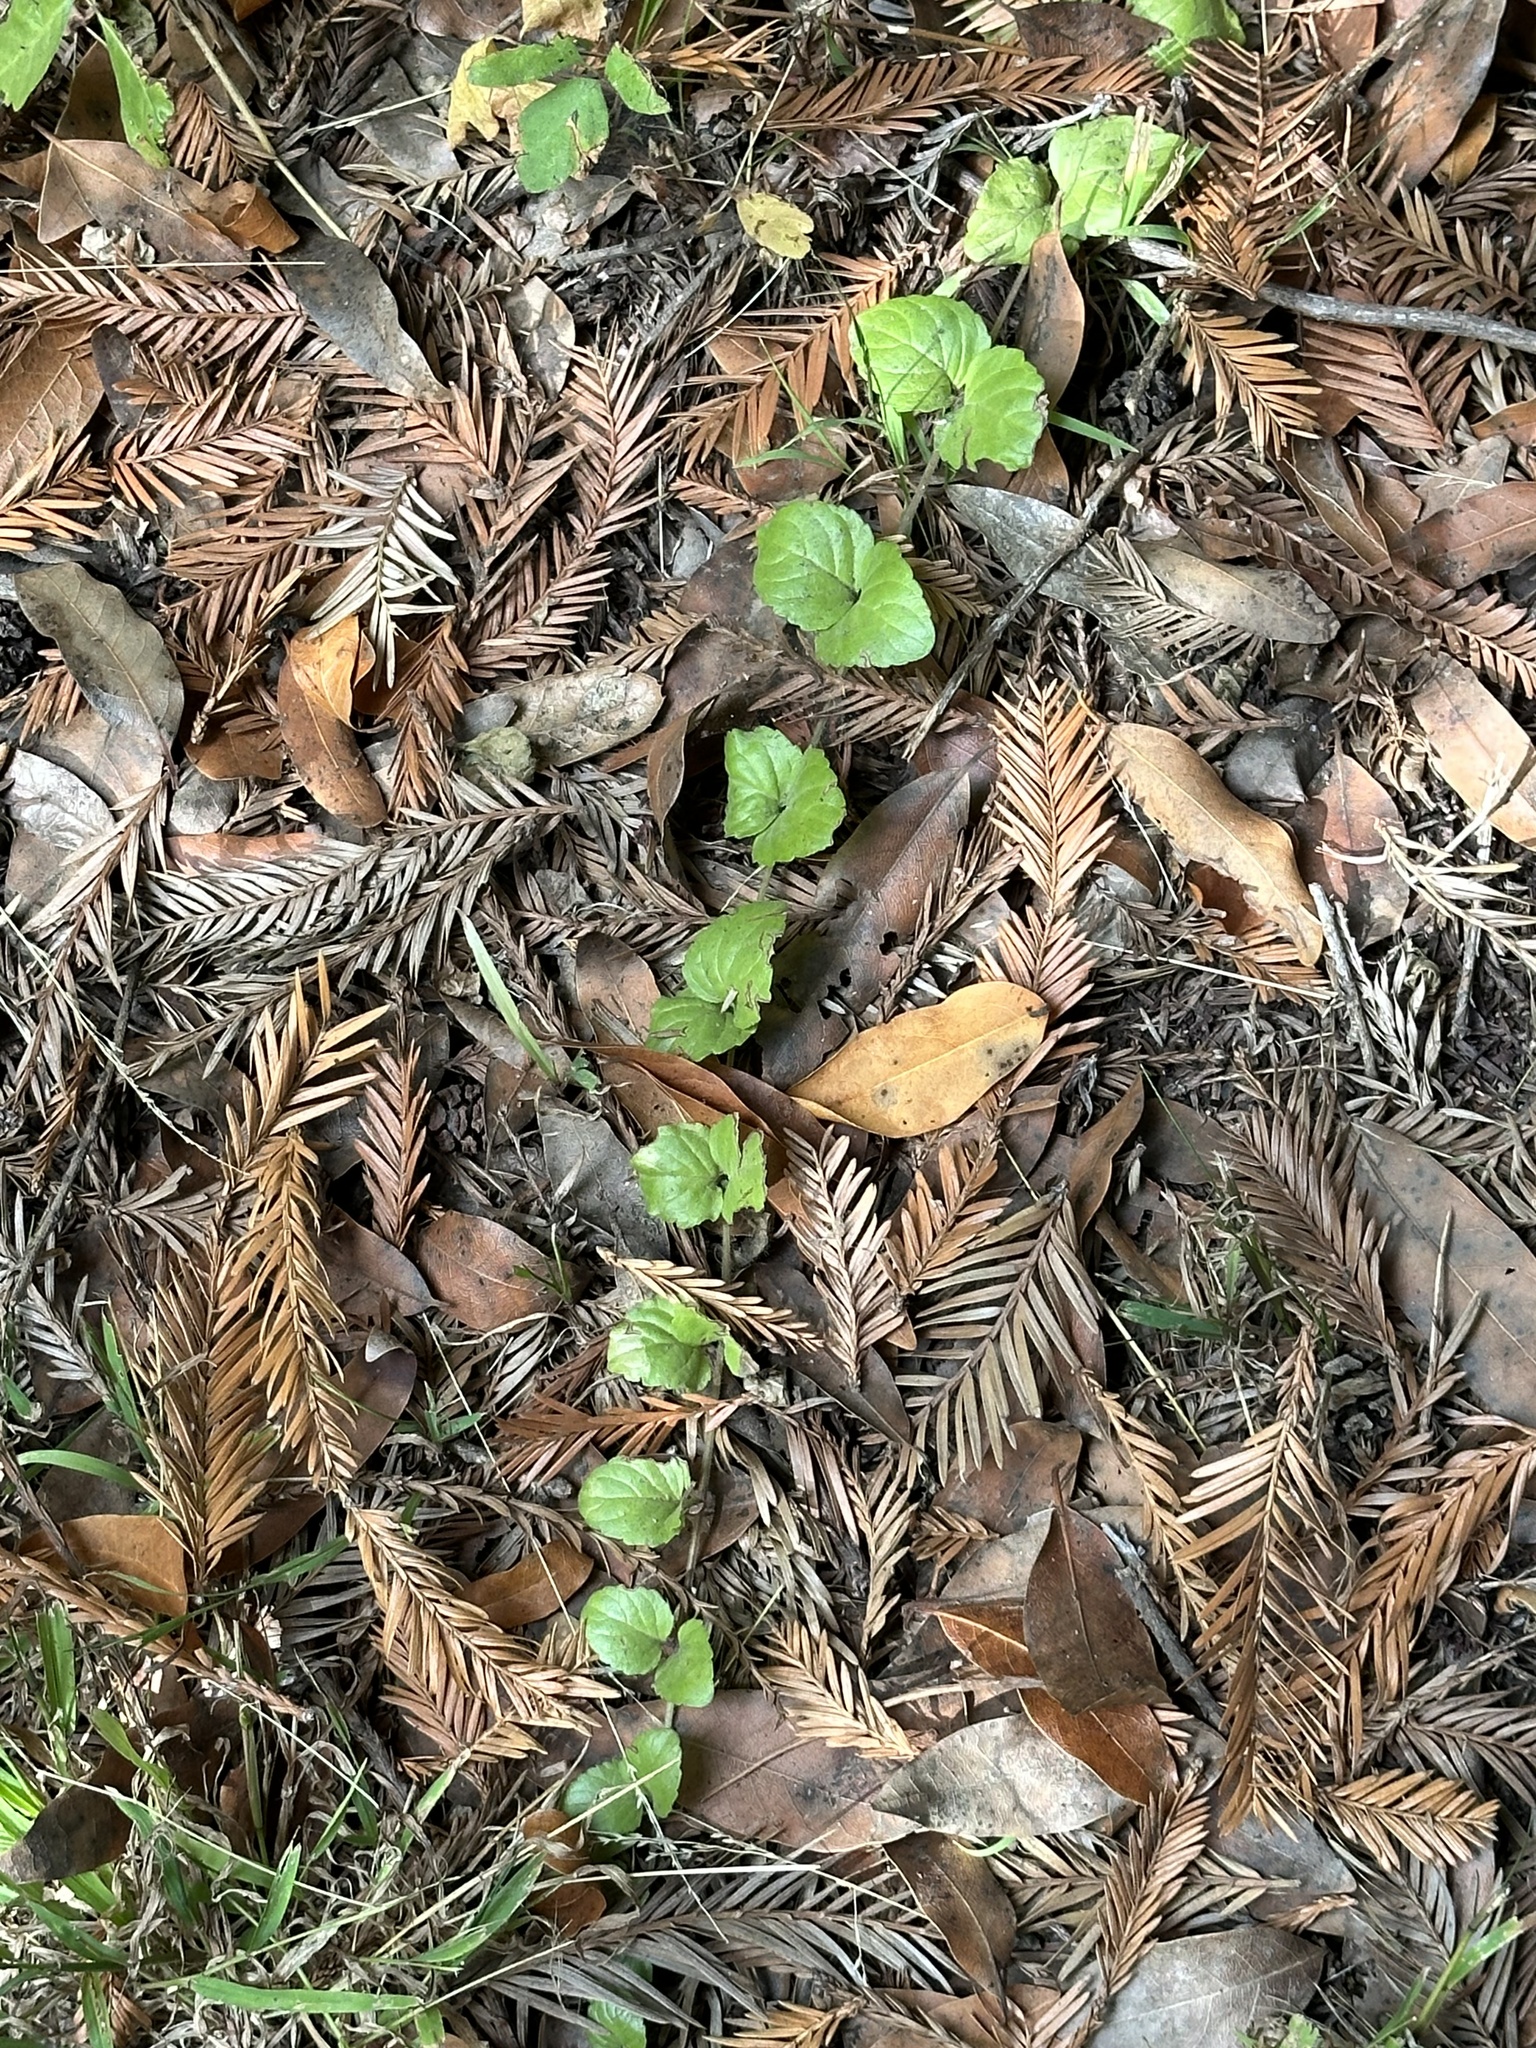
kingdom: Plantae
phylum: Tracheophyta
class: Magnoliopsida
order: Lamiales
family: Lamiaceae
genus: Micromeria
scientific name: Micromeria douglasii
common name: Yerba buena
